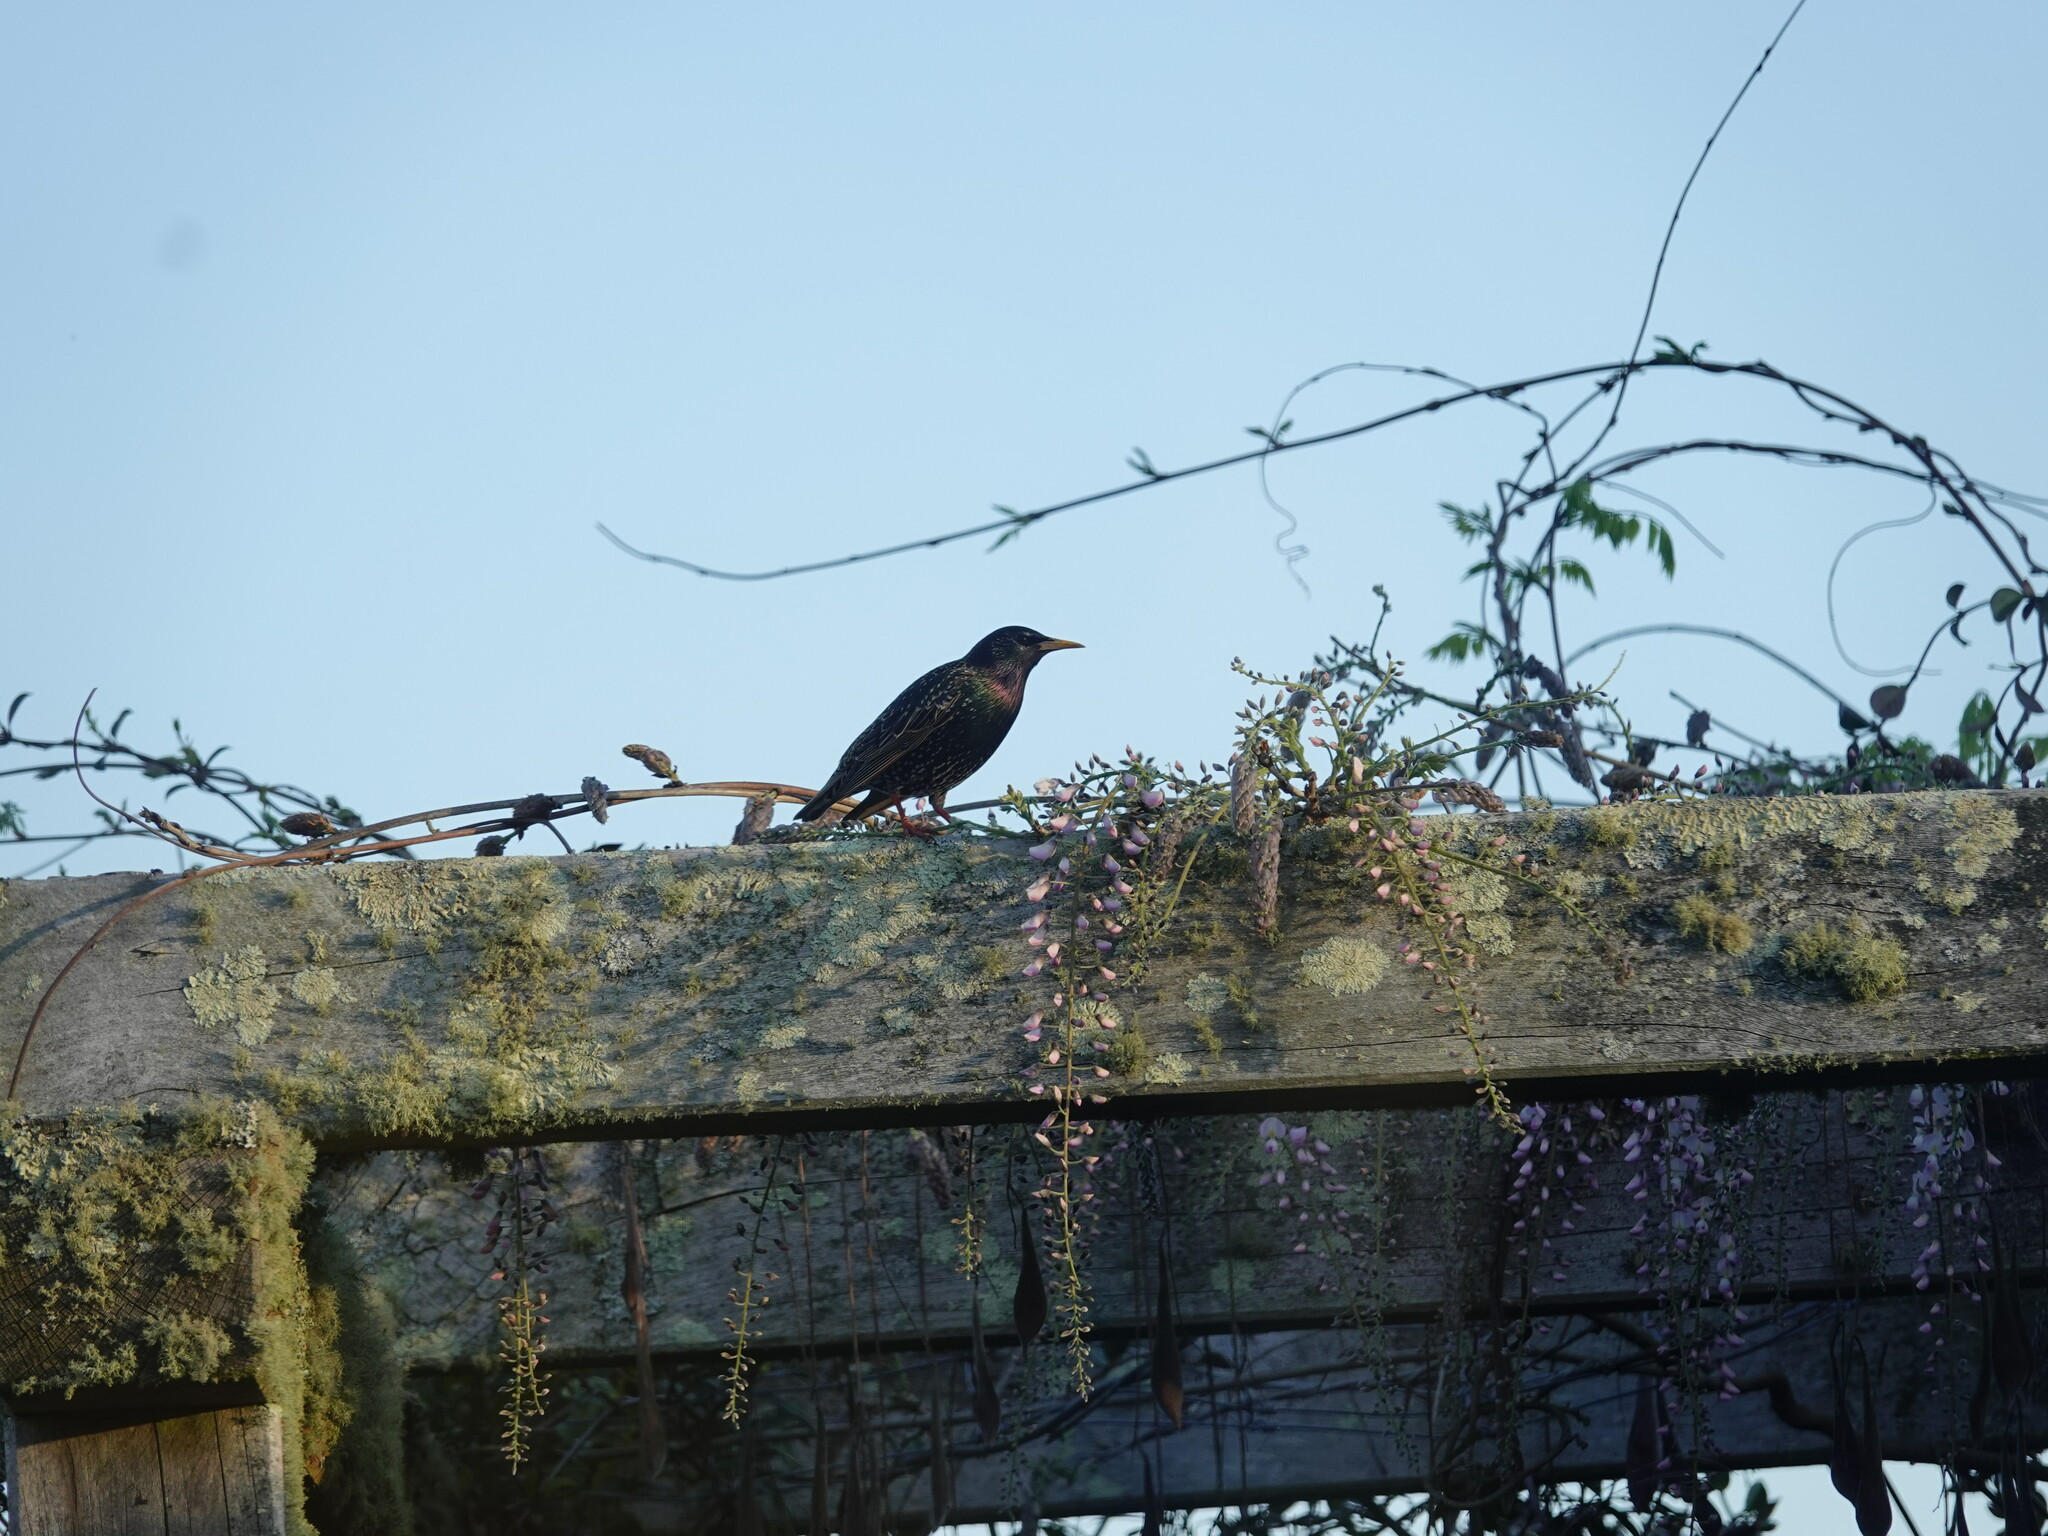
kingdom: Animalia
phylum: Chordata
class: Aves
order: Passeriformes
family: Sturnidae
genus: Sturnus
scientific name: Sturnus vulgaris
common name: Common starling
